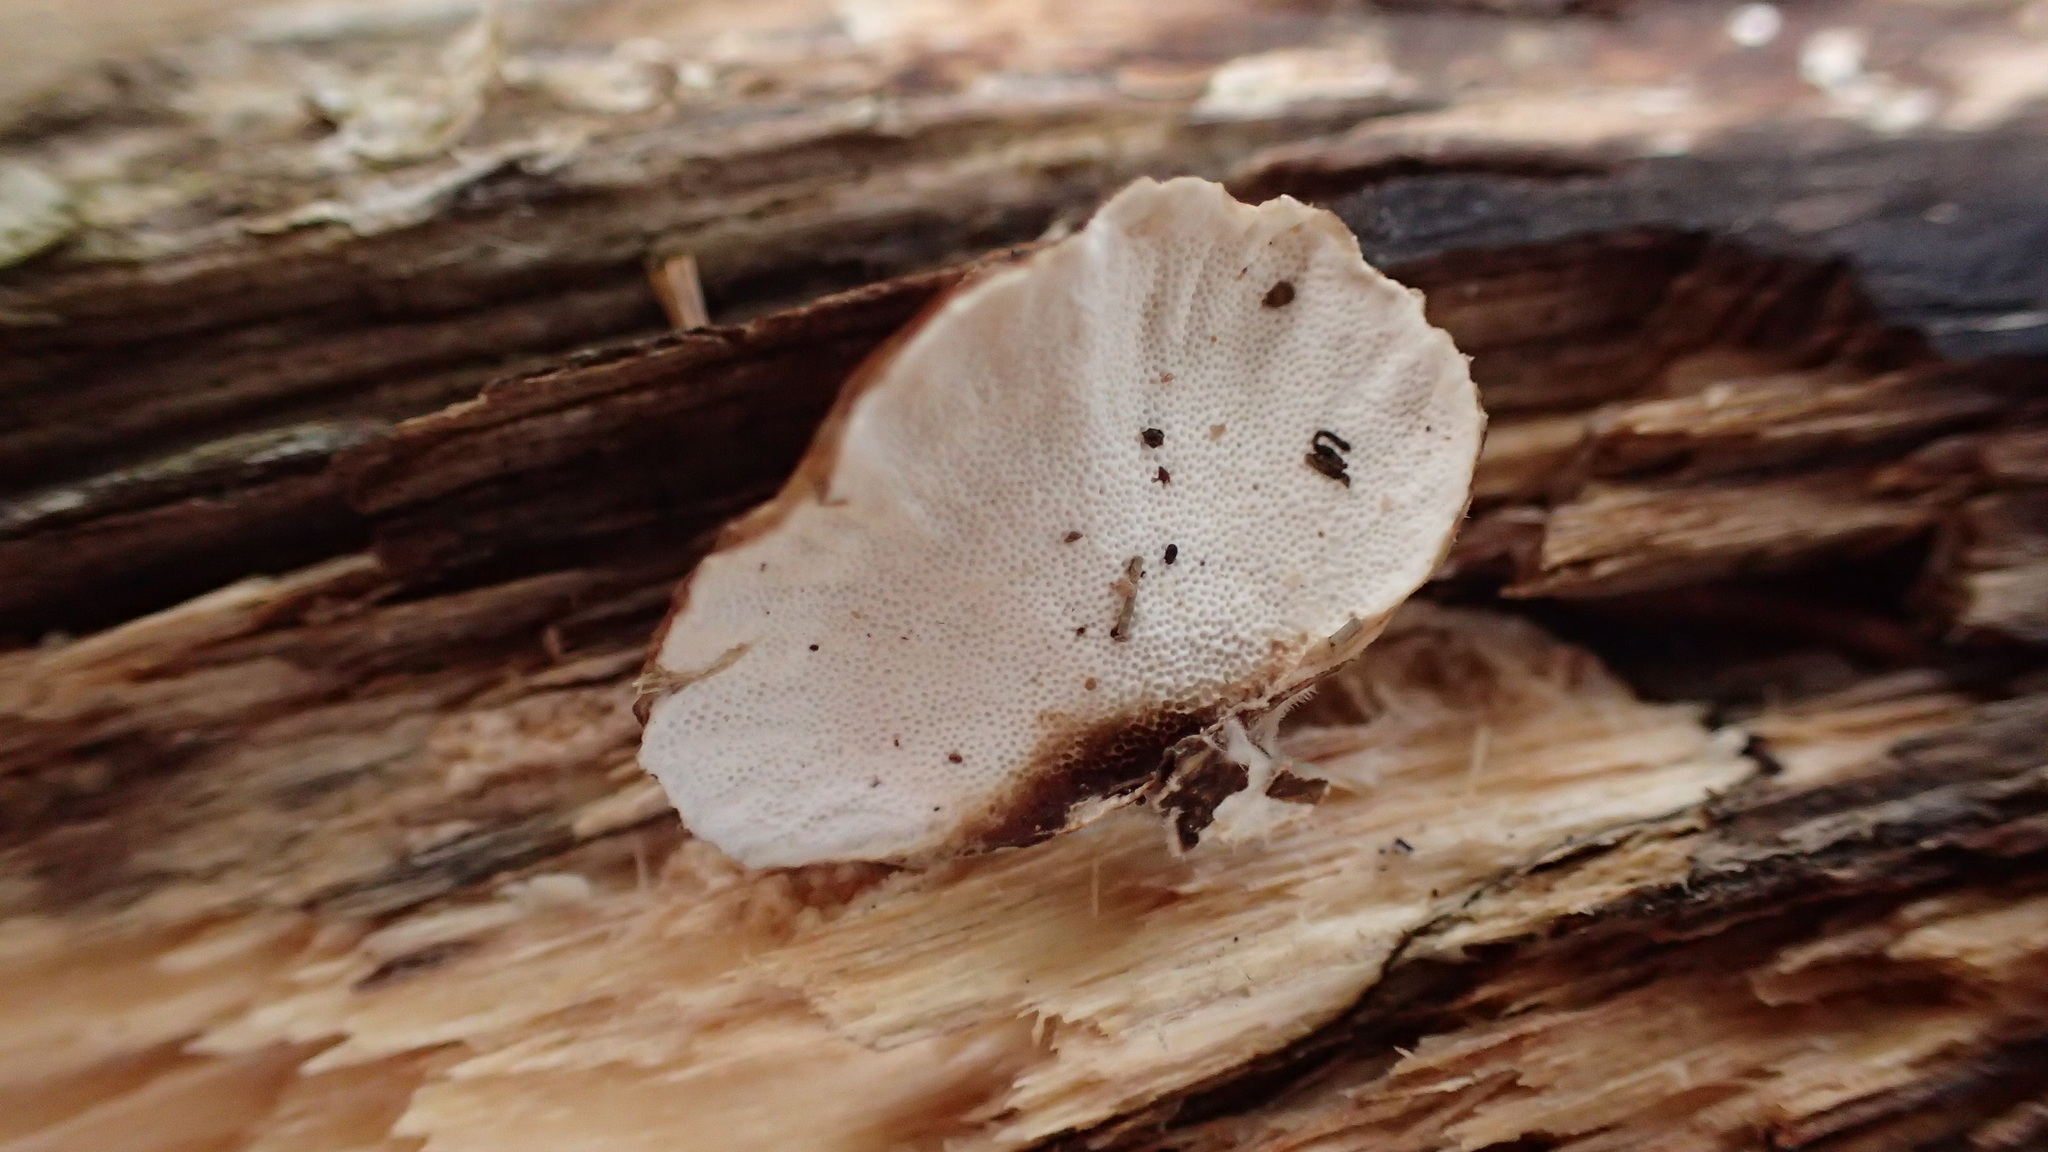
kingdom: Fungi
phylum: Basidiomycota
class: Agaricomycetes
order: Polyporales
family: Polyporaceae
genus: Trametes
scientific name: Trametes versicolor
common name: Turkeytail
